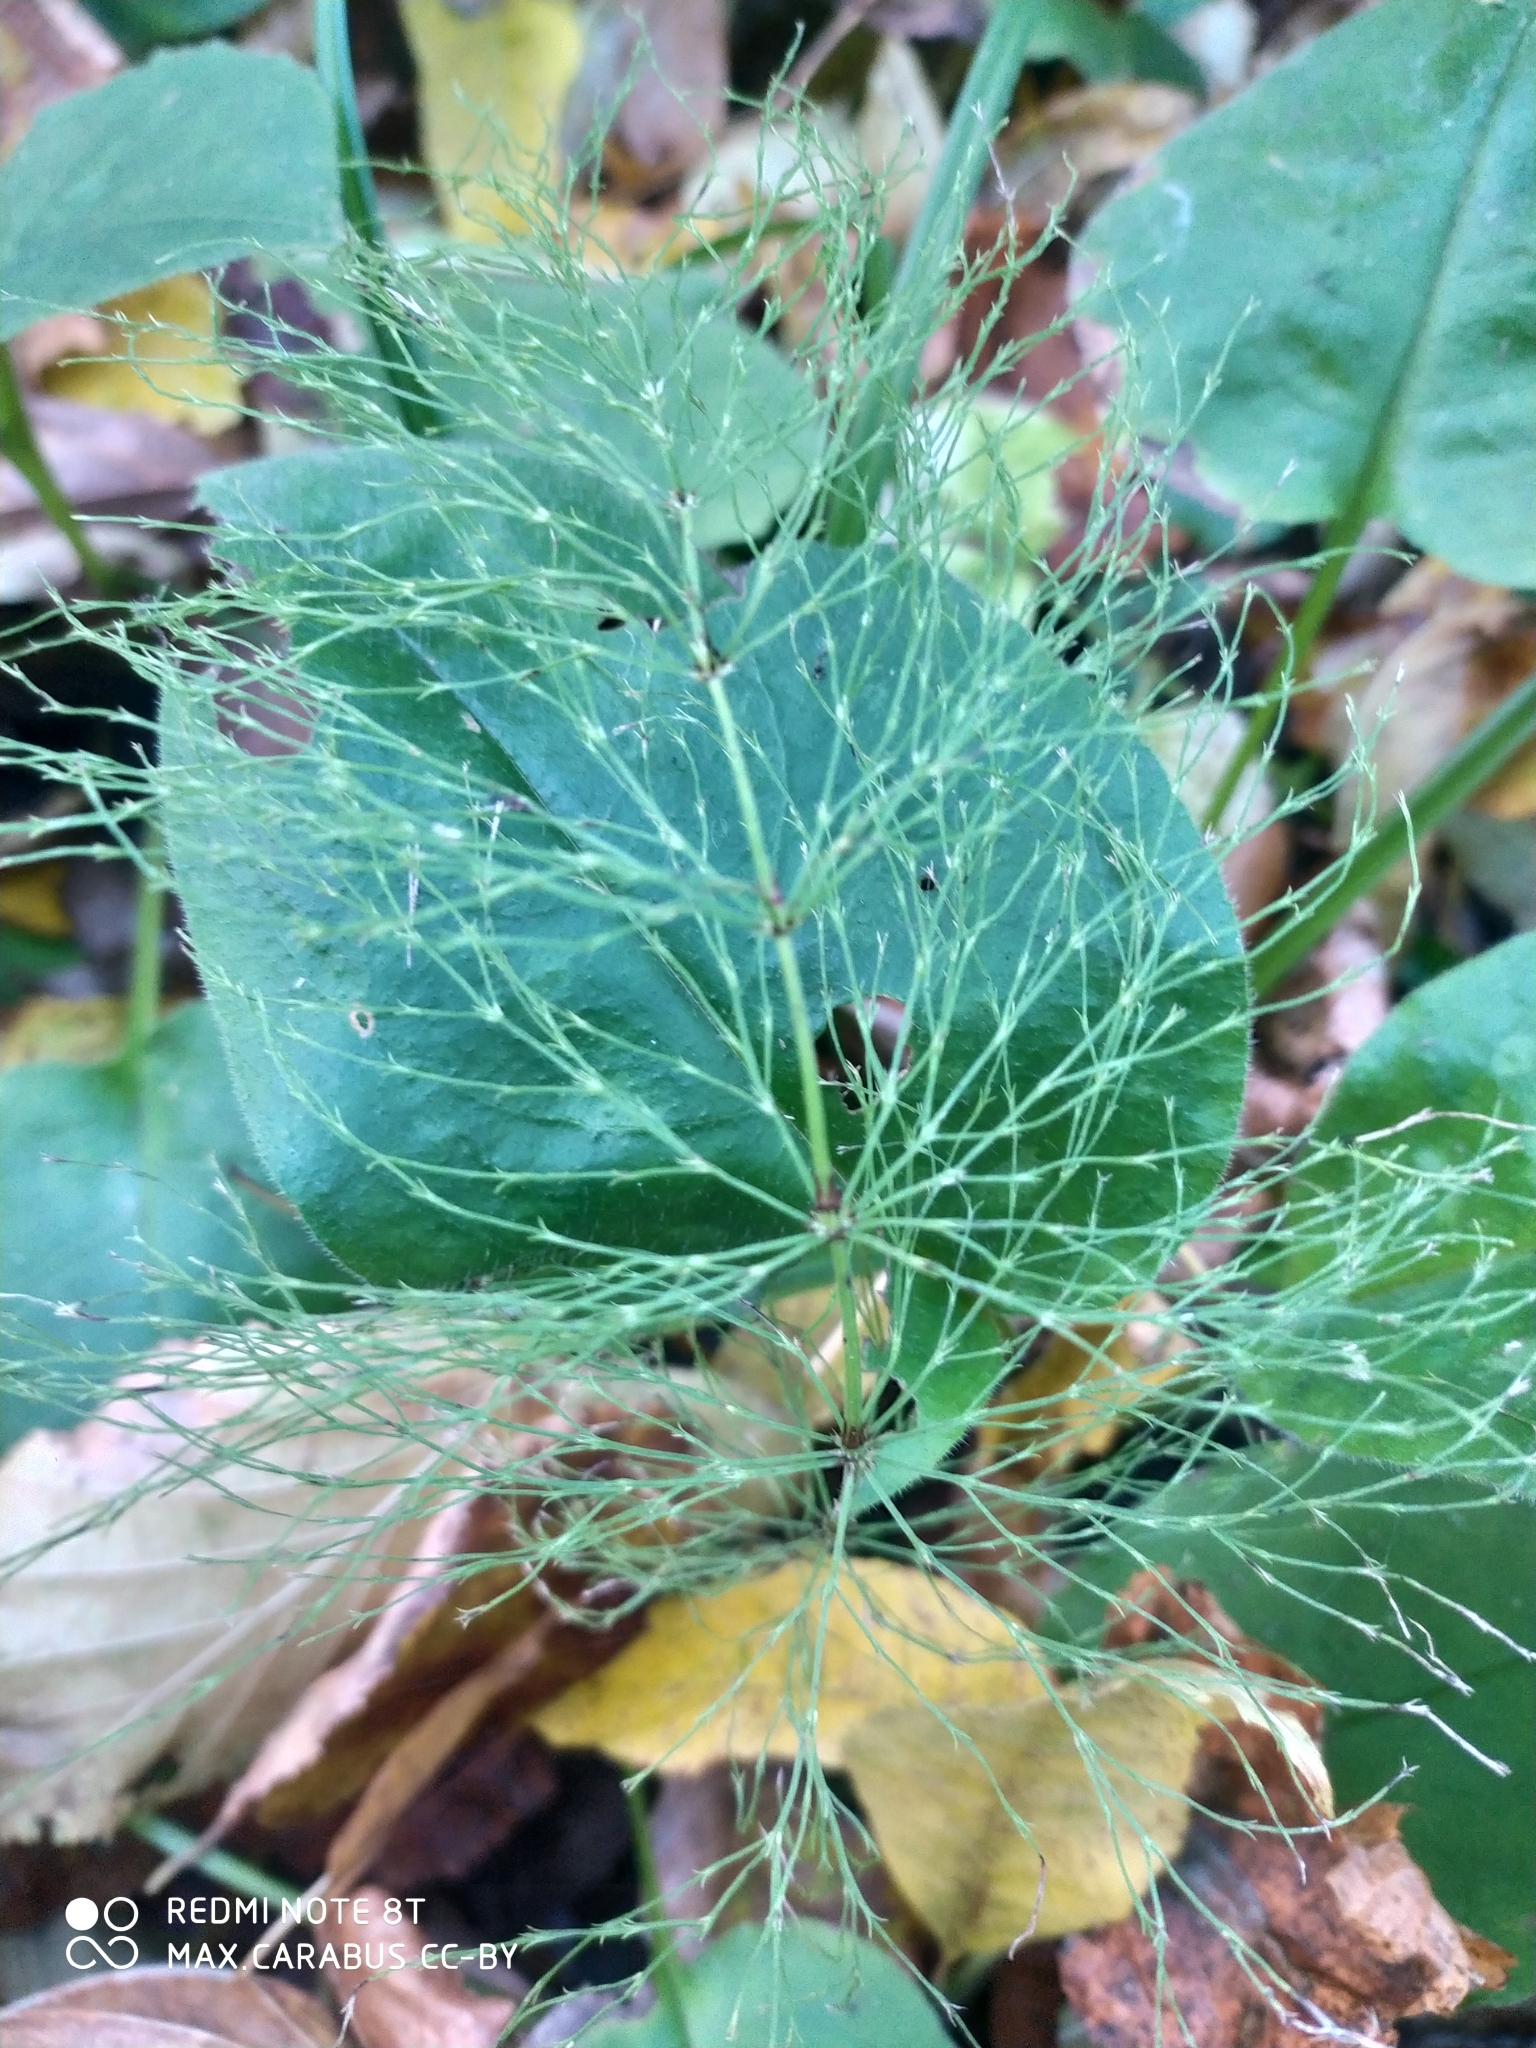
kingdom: Plantae
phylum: Tracheophyta
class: Polypodiopsida
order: Equisetales
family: Equisetaceae
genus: Equisetum
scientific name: Equisetum sylvaticum
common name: Wood horsetail
